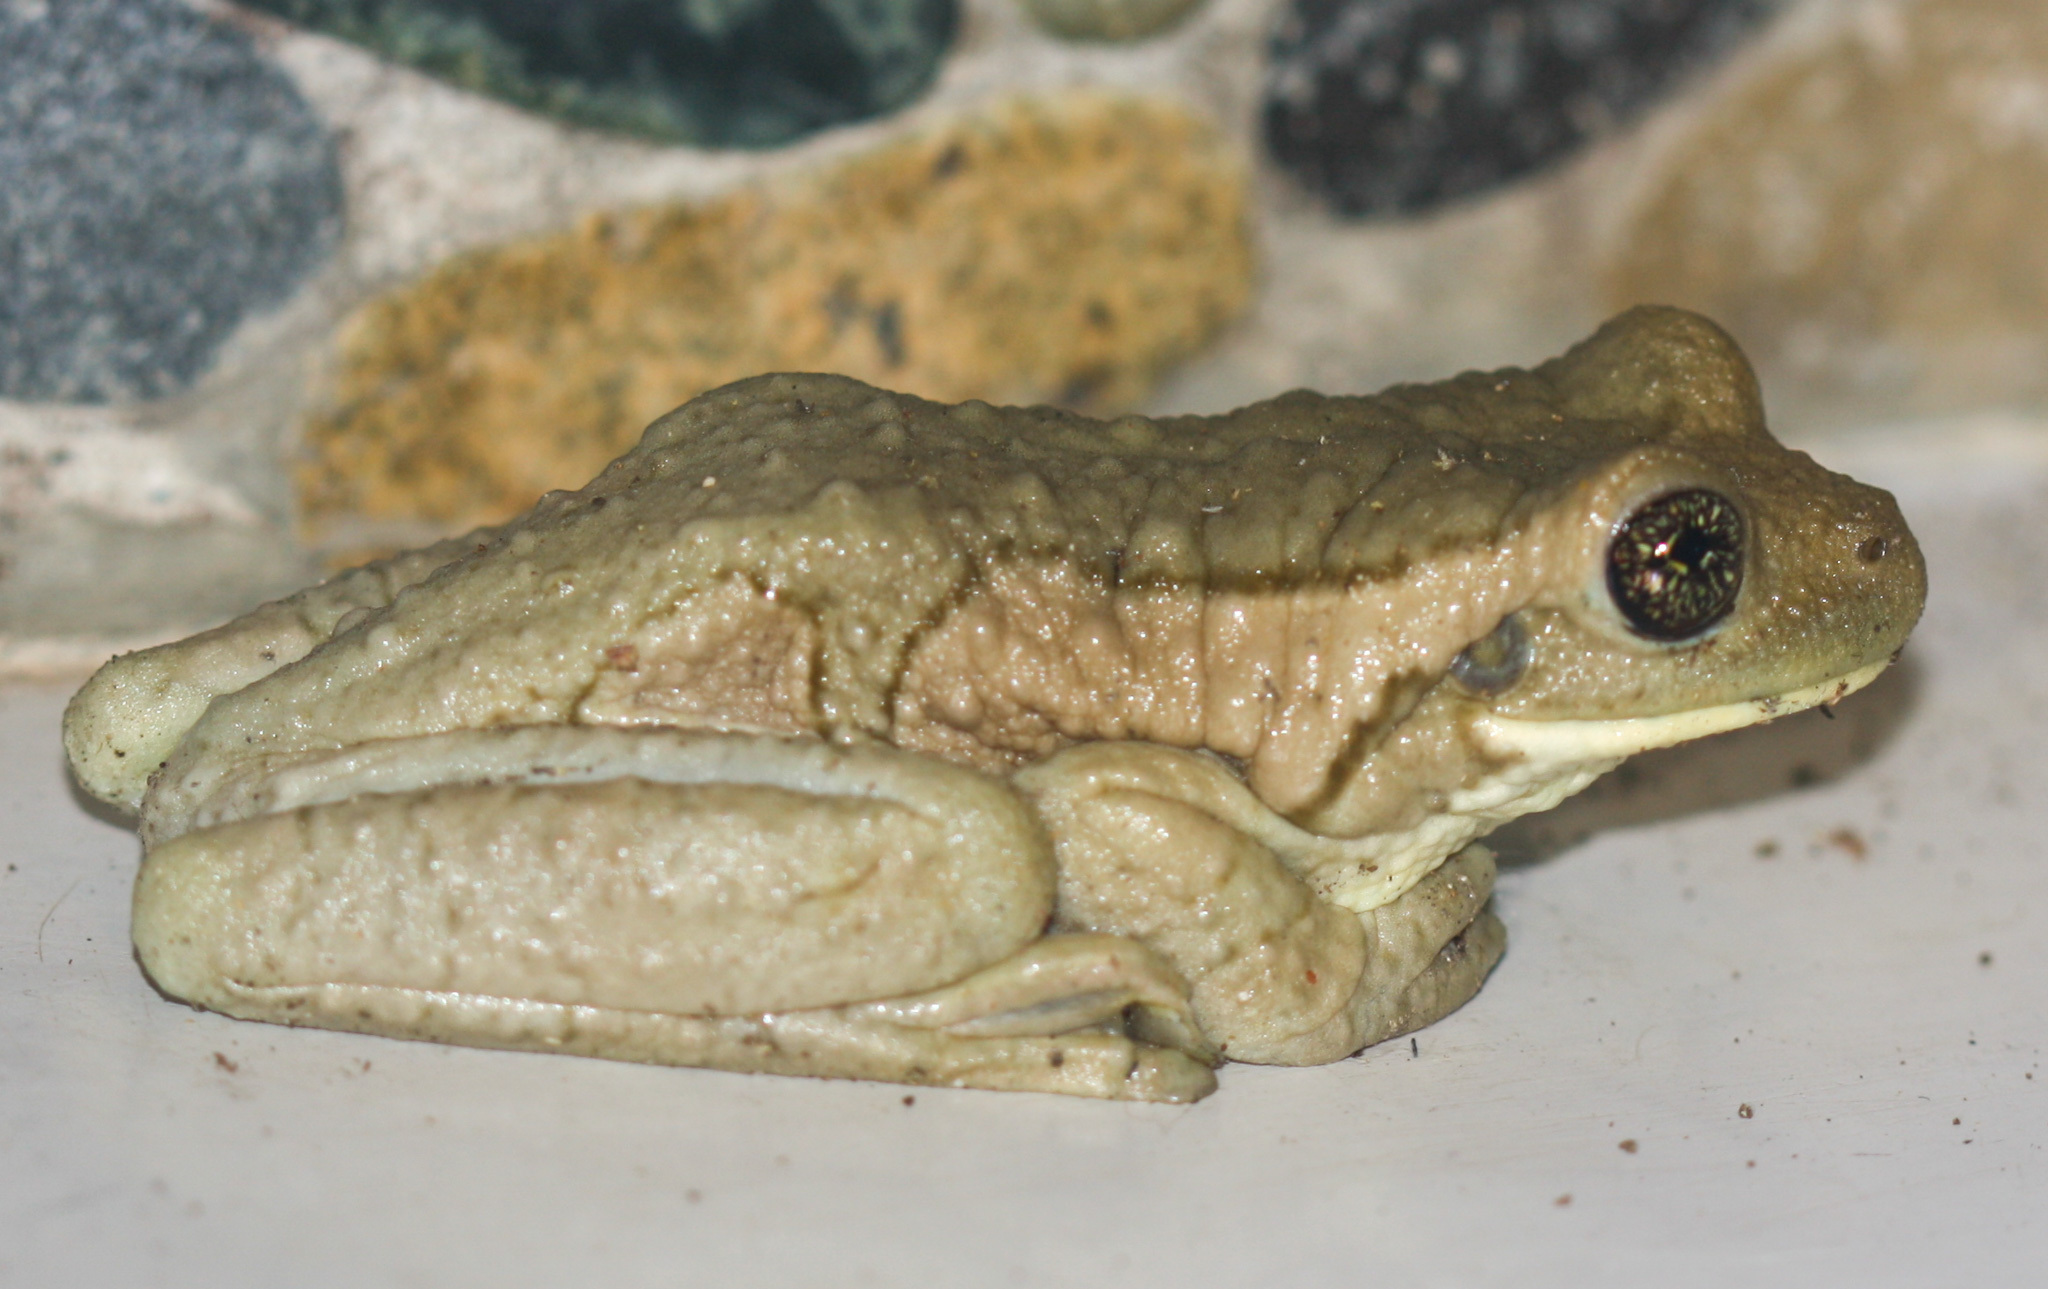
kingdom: Animalia
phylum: Chordata
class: Amphibia
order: Anura
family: Hylidae
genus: Trachycephalus
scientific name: Trachycephalus vermiculatus
